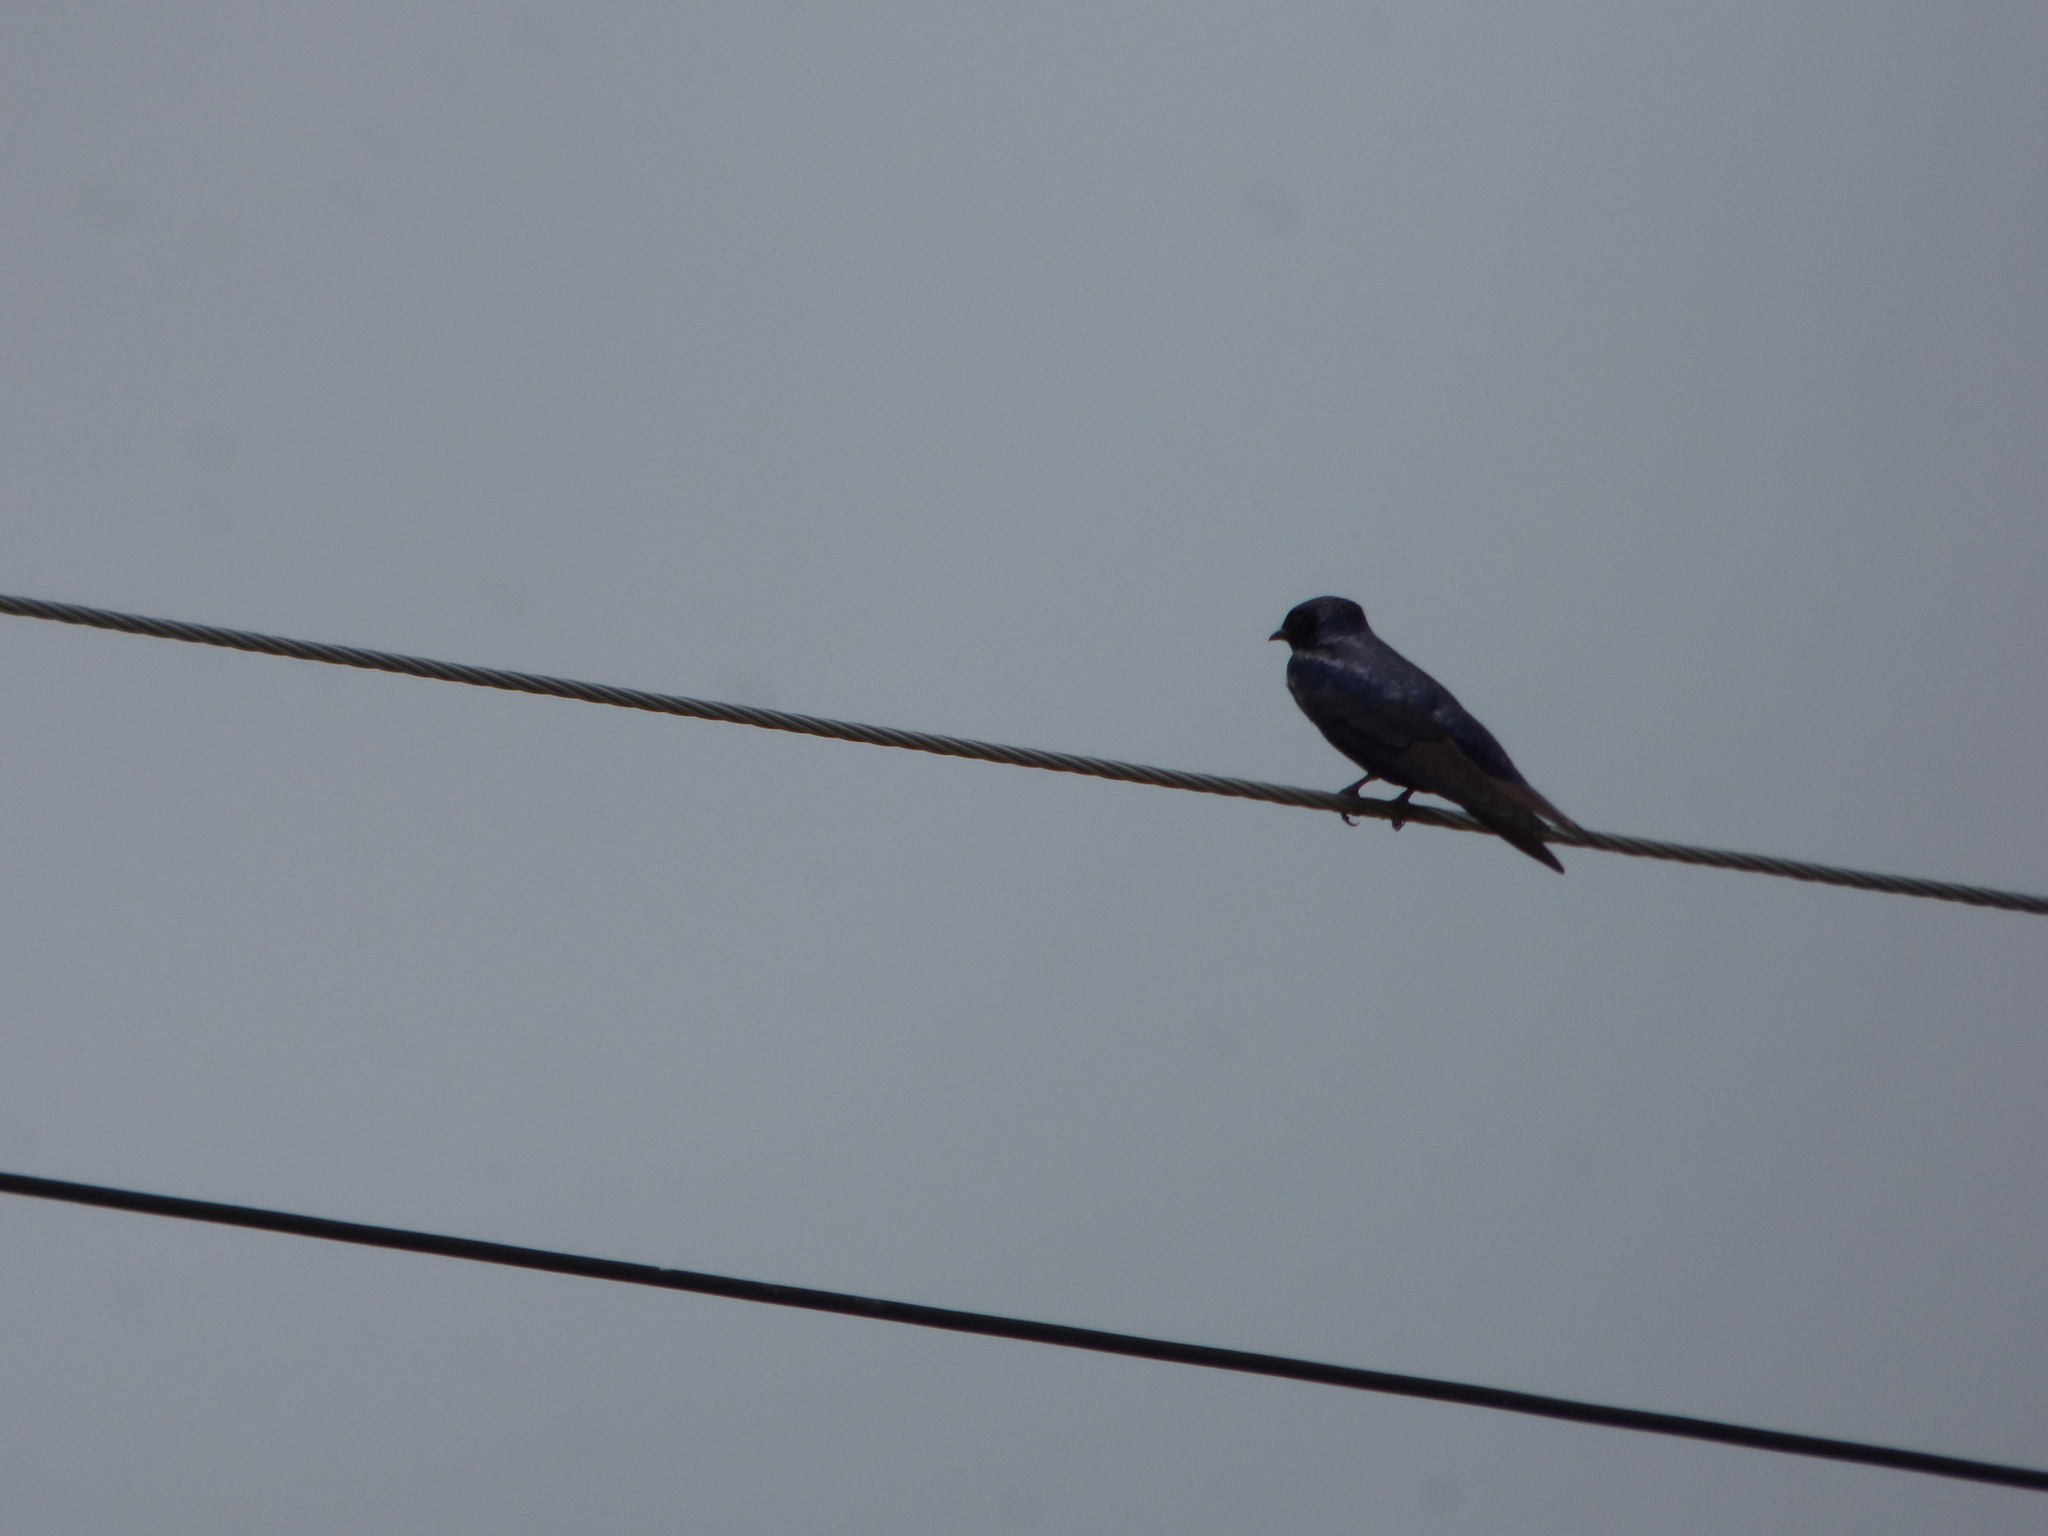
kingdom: Animalia
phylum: Chordata
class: Aves
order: Passeriformes
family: Hirundinidae
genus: Progne
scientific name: Progne elegans
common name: Southern martin
